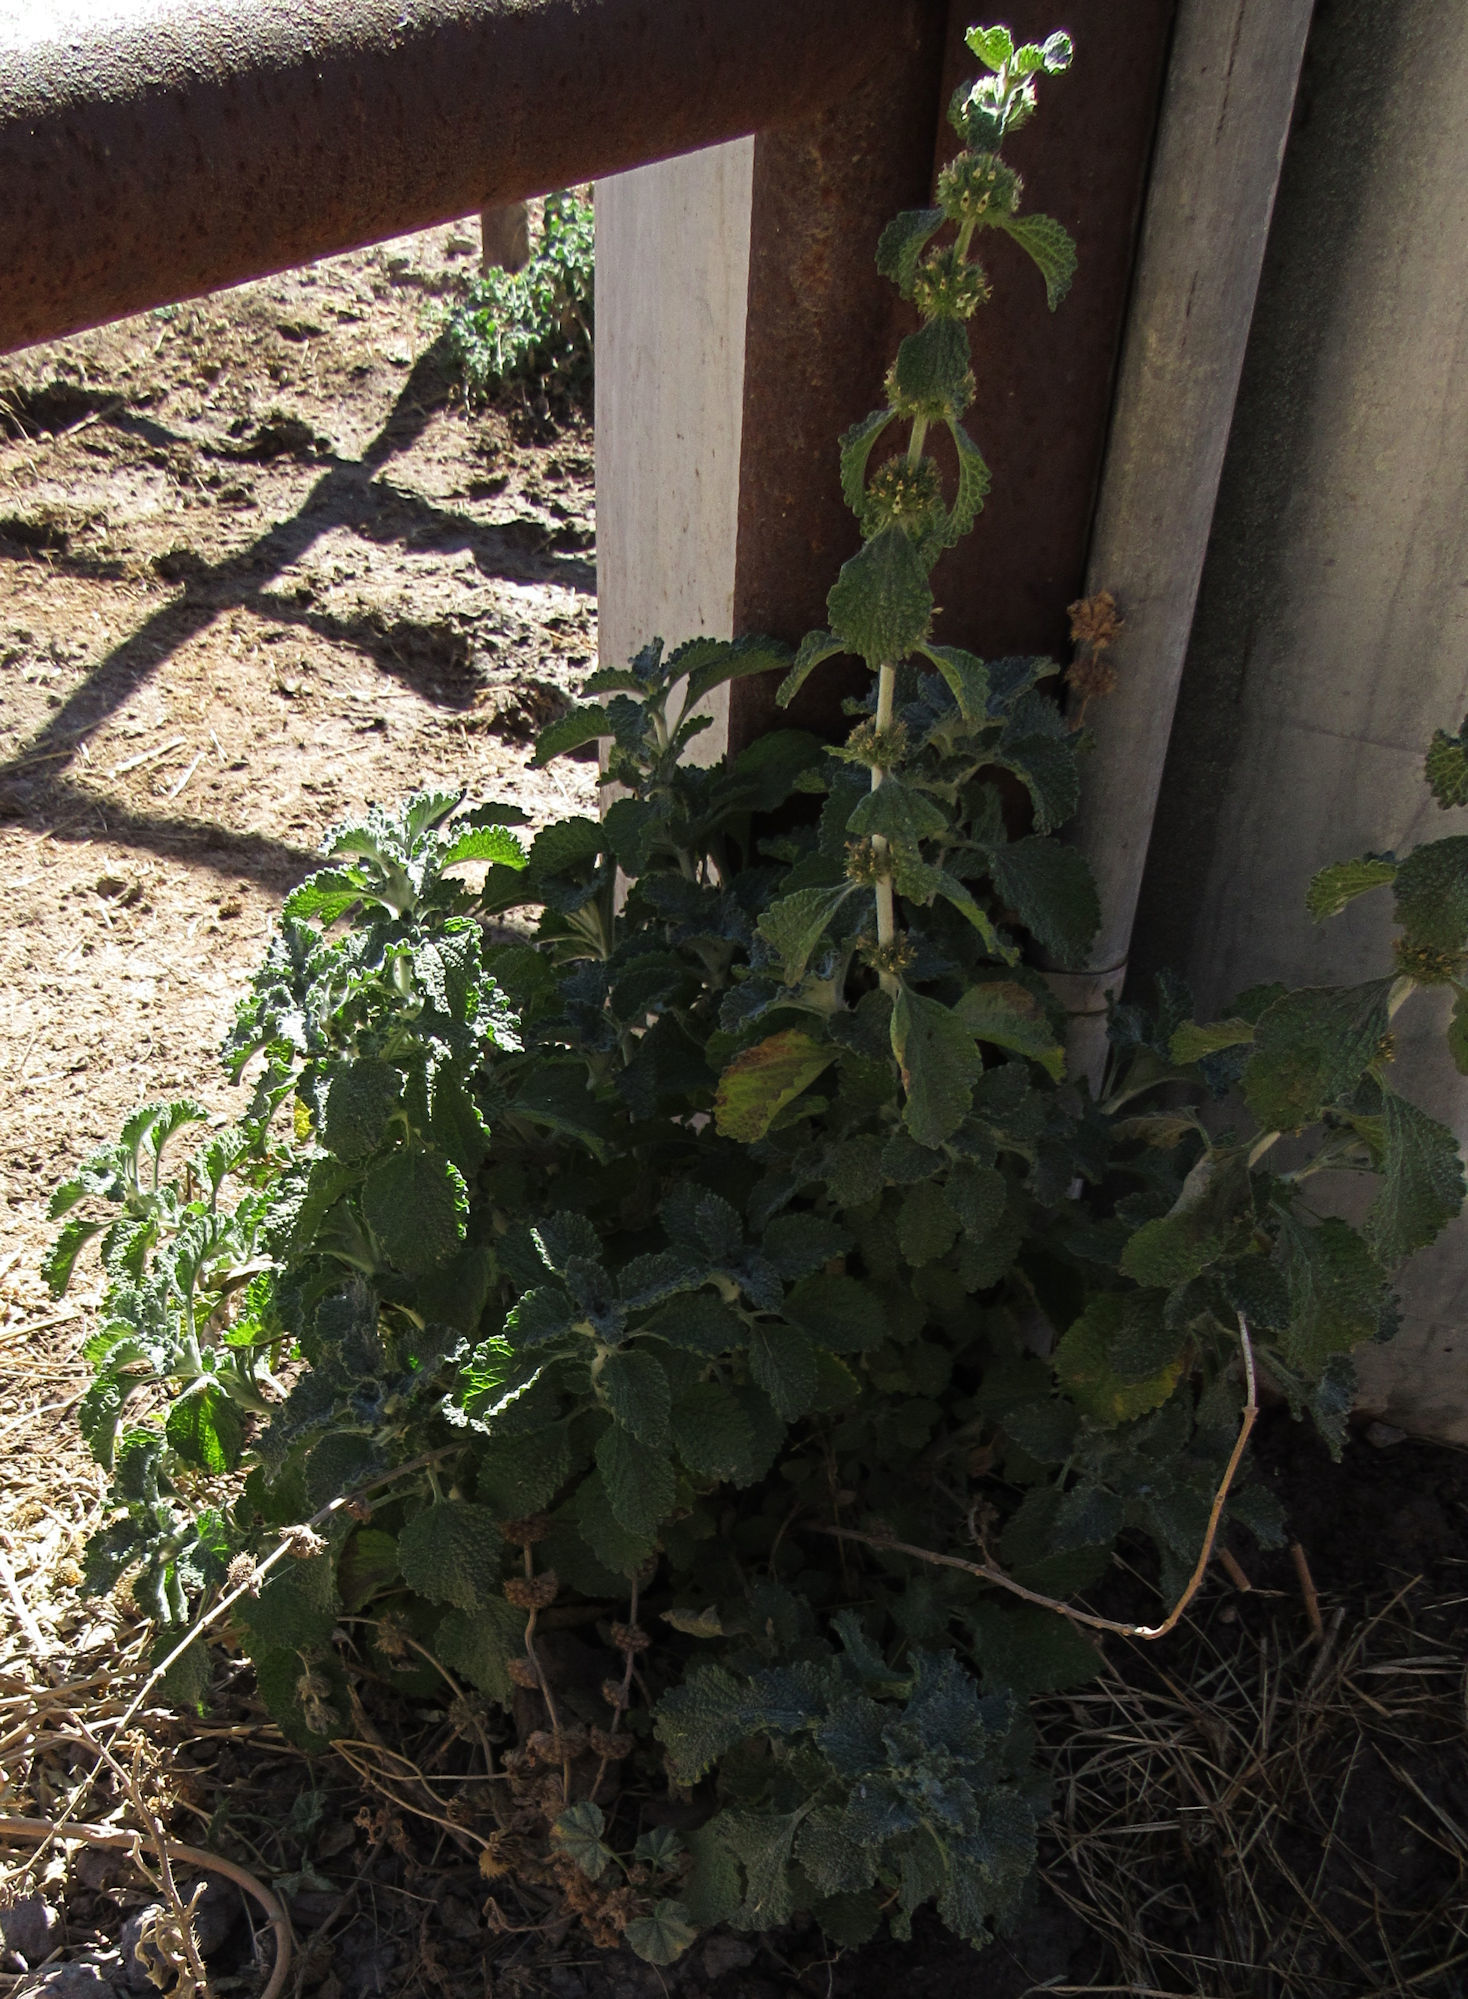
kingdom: Plantae
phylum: Tracheophyta
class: Magnoliopsida
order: Lamiales
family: Lamiaceae
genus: Marrubium
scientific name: Marrubium vulgare
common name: Horehound
